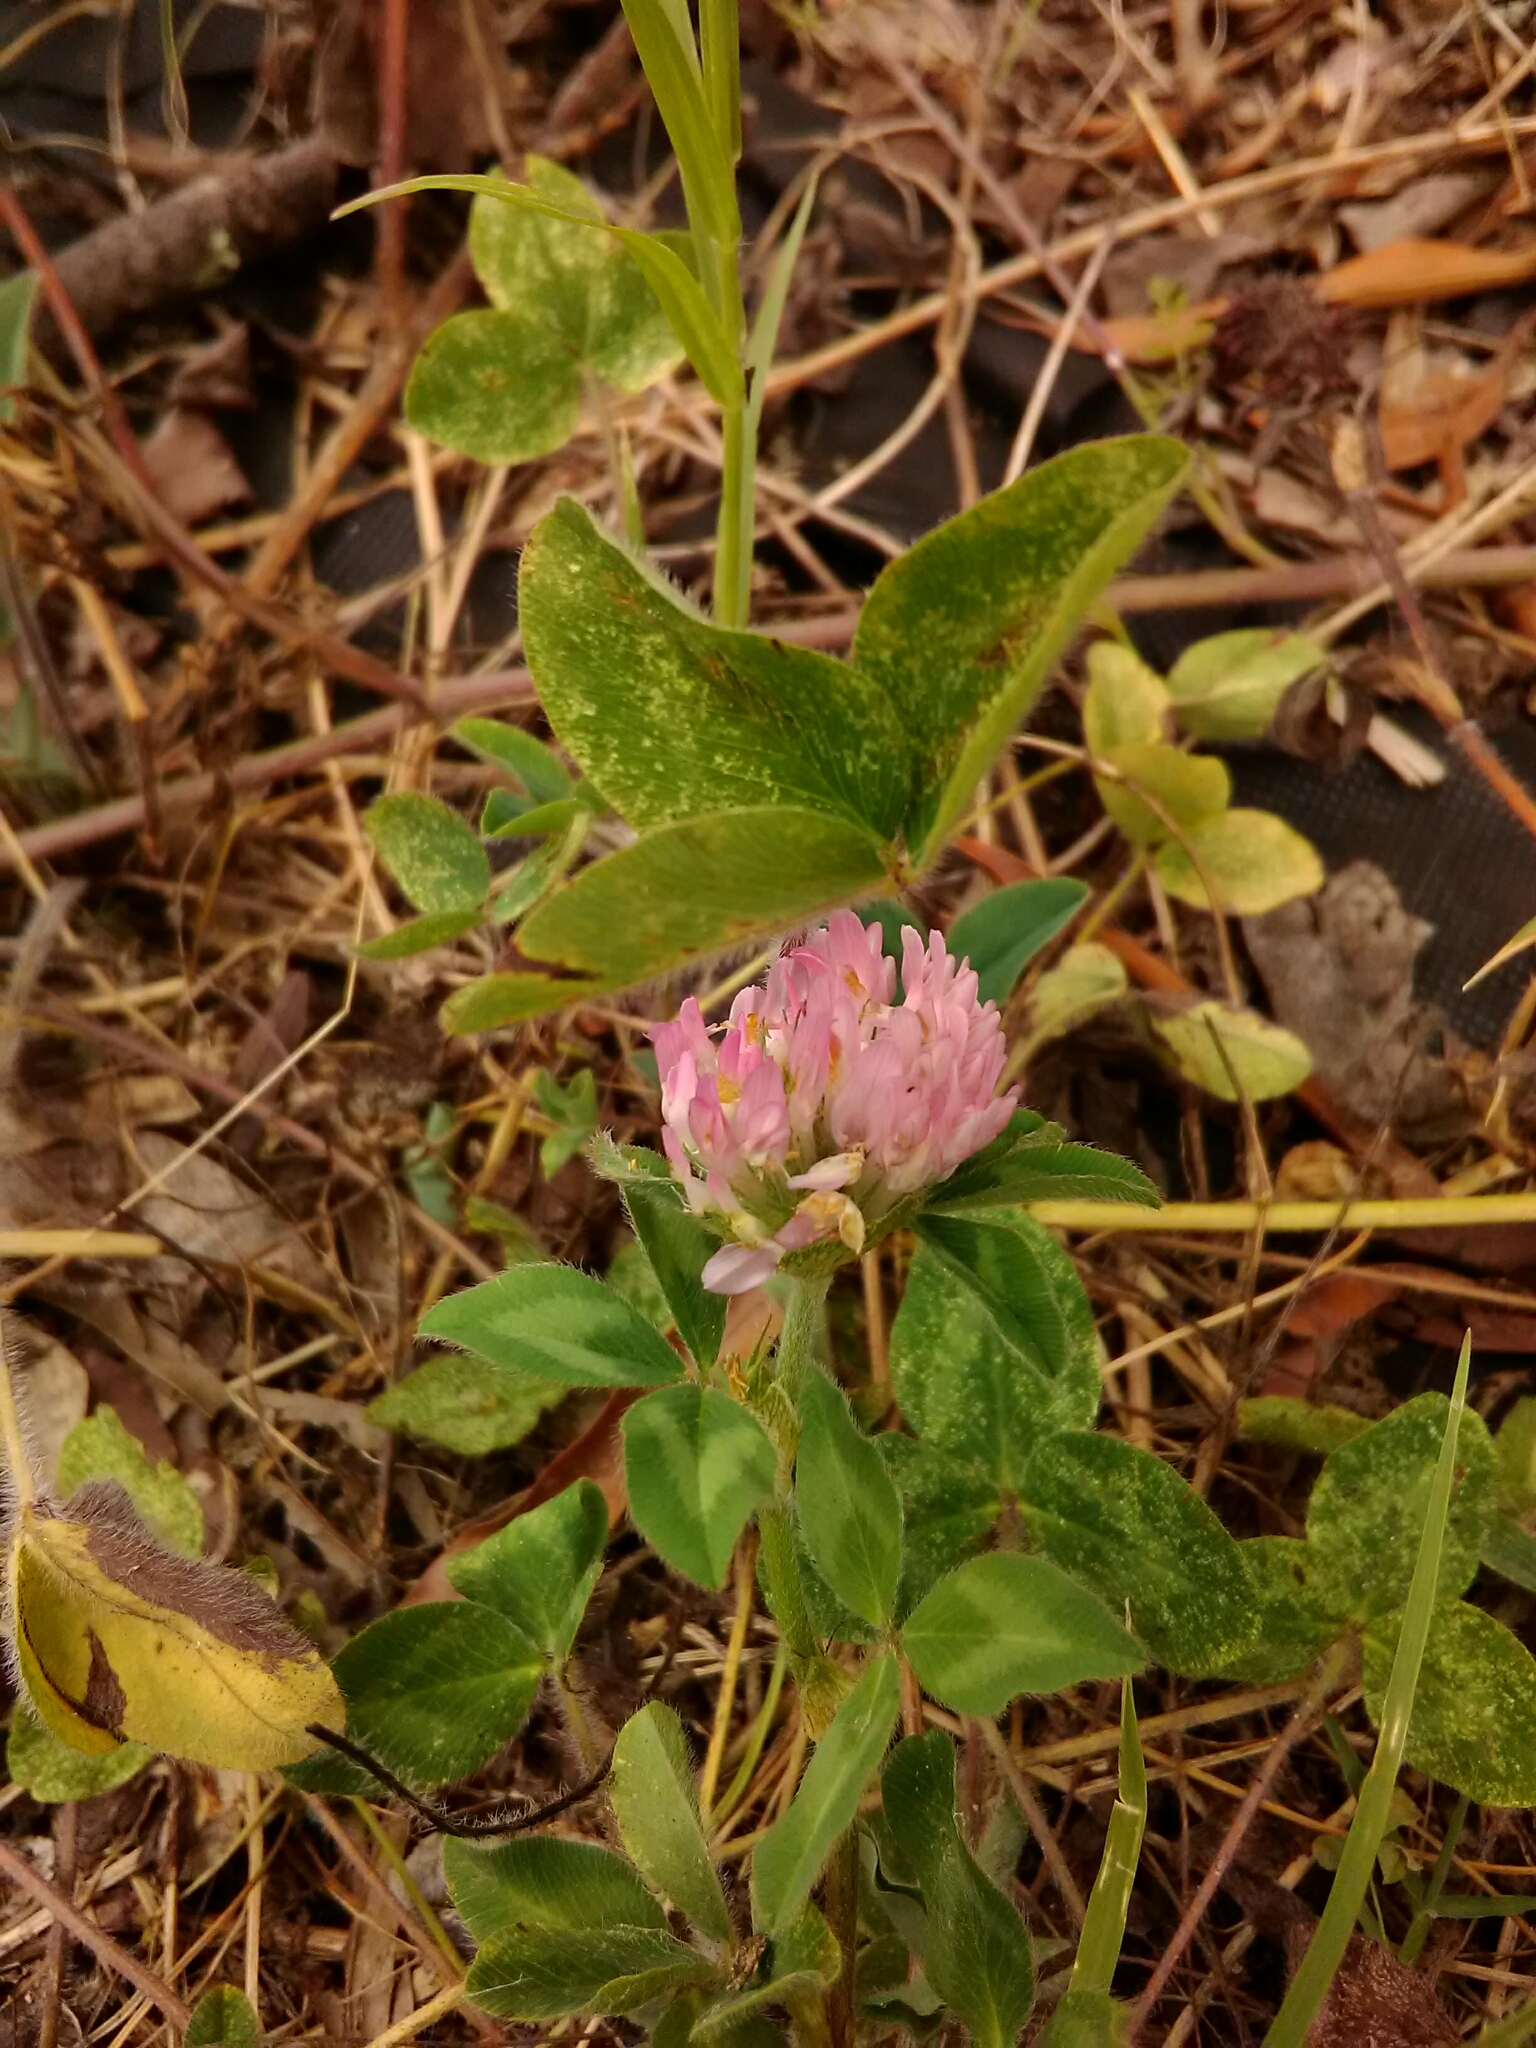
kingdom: Plantae
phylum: Tracheophyta
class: Magnoliopsida
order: Fabales
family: Fabaceae
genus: Trifolium
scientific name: Trifolium pratense
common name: Red clover
